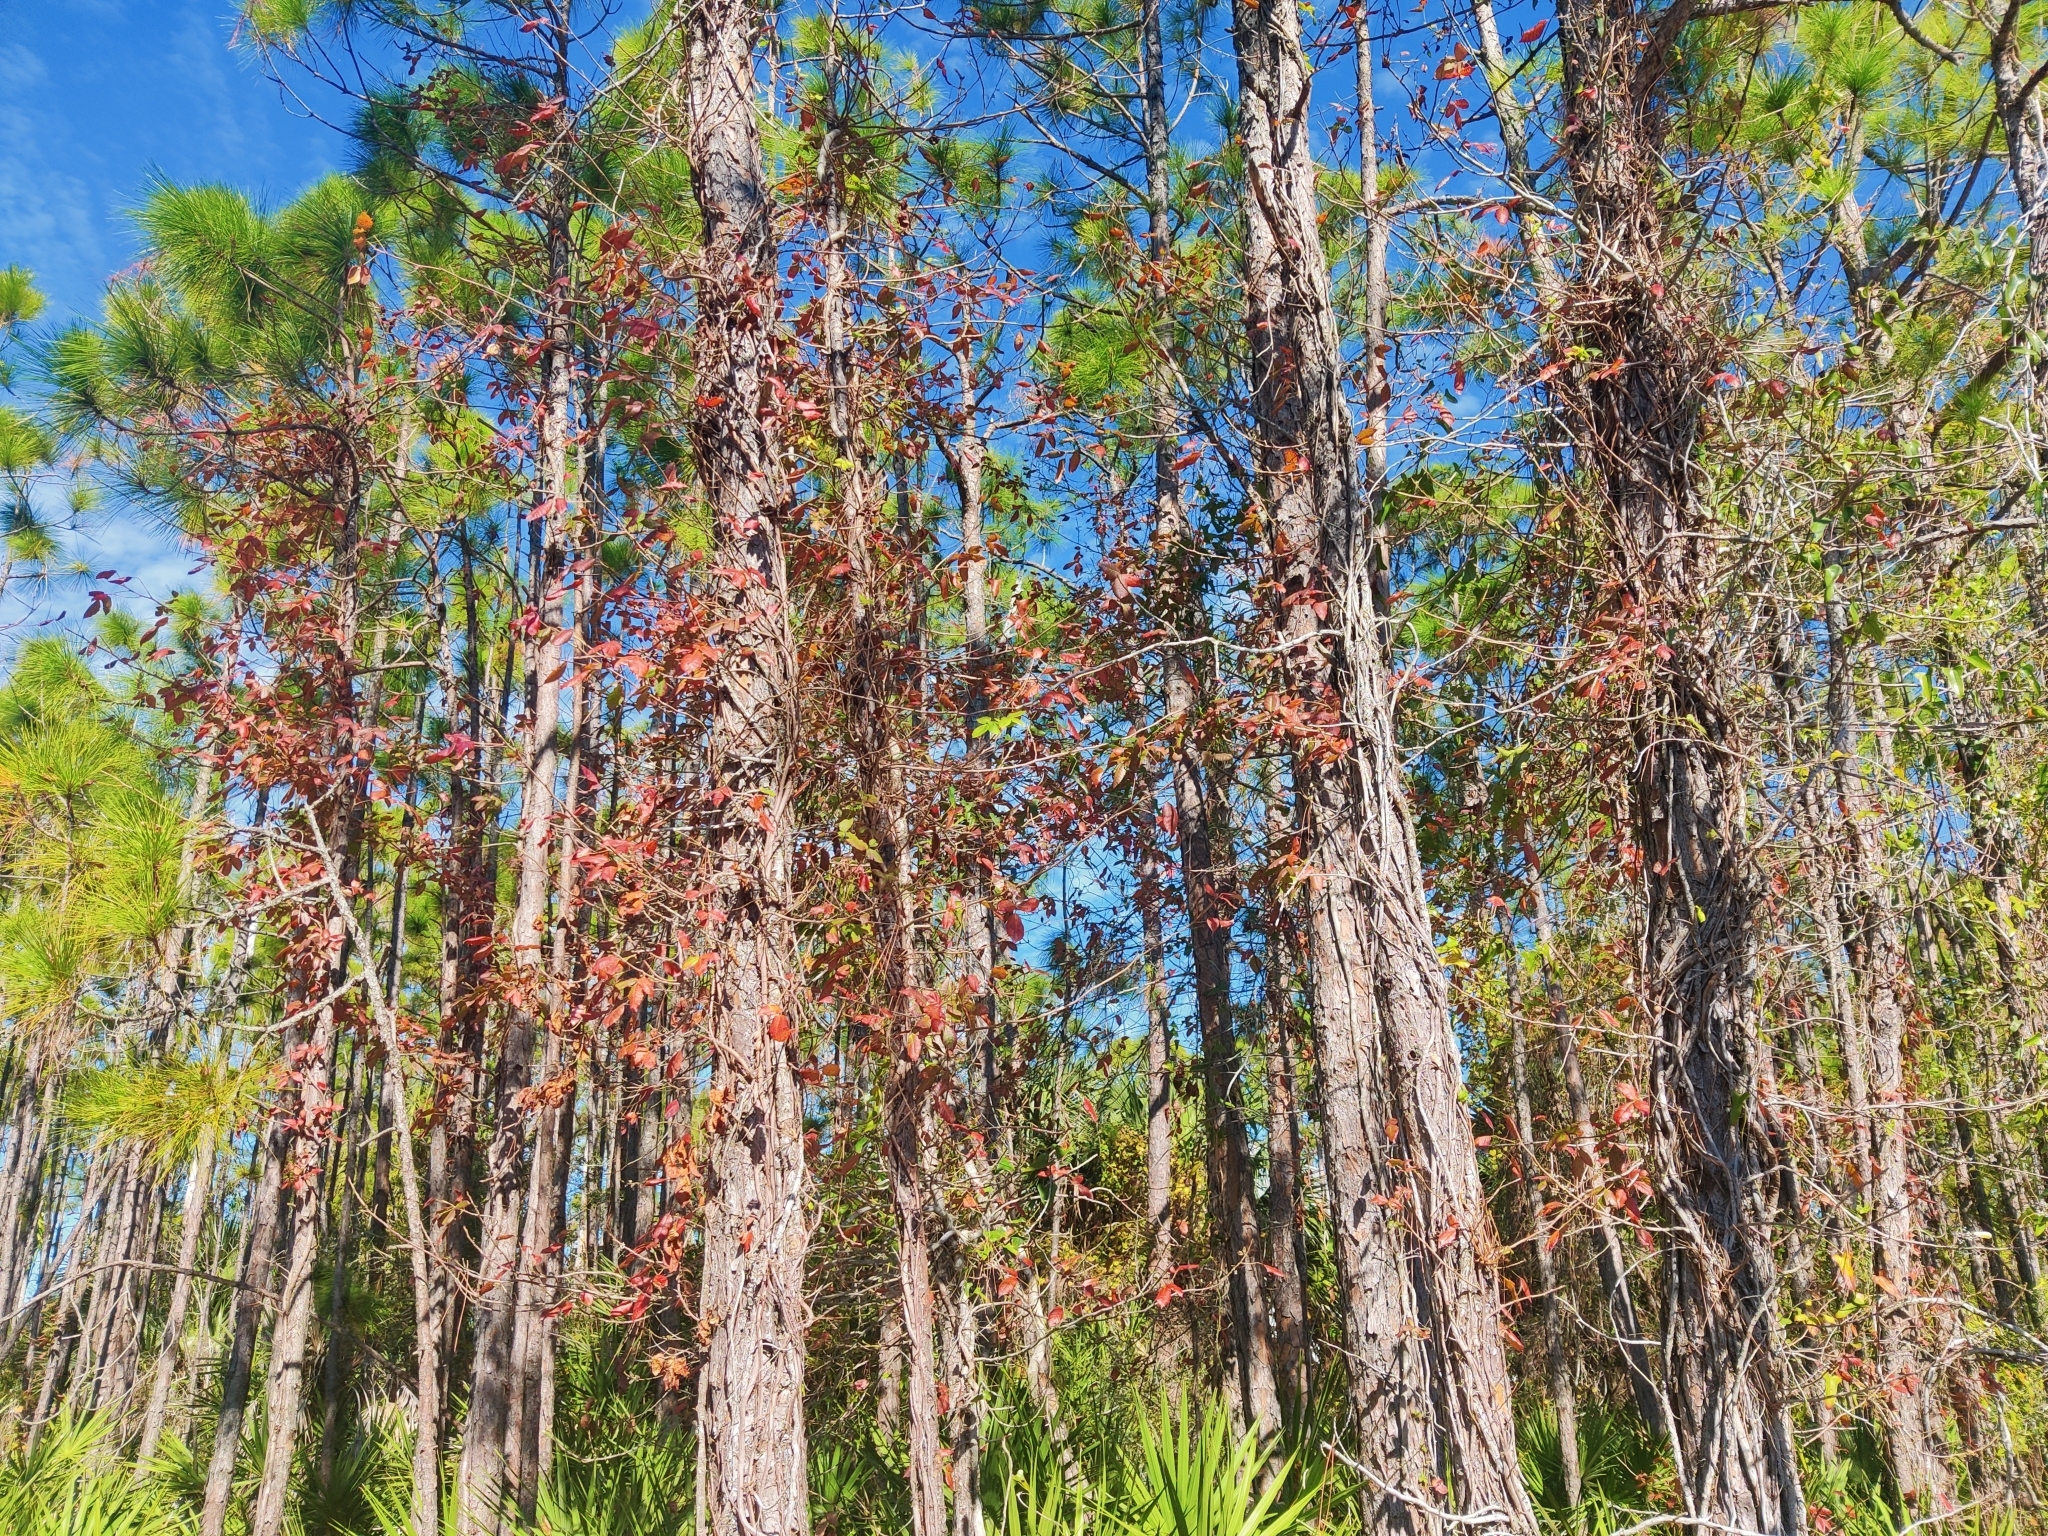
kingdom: Plantae
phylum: Tracheophyta
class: Magnoliopsida
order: Sapindales
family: Anacardiaceae
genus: Toxicodendron
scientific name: Toxicodendron radicans
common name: Poison ivy
